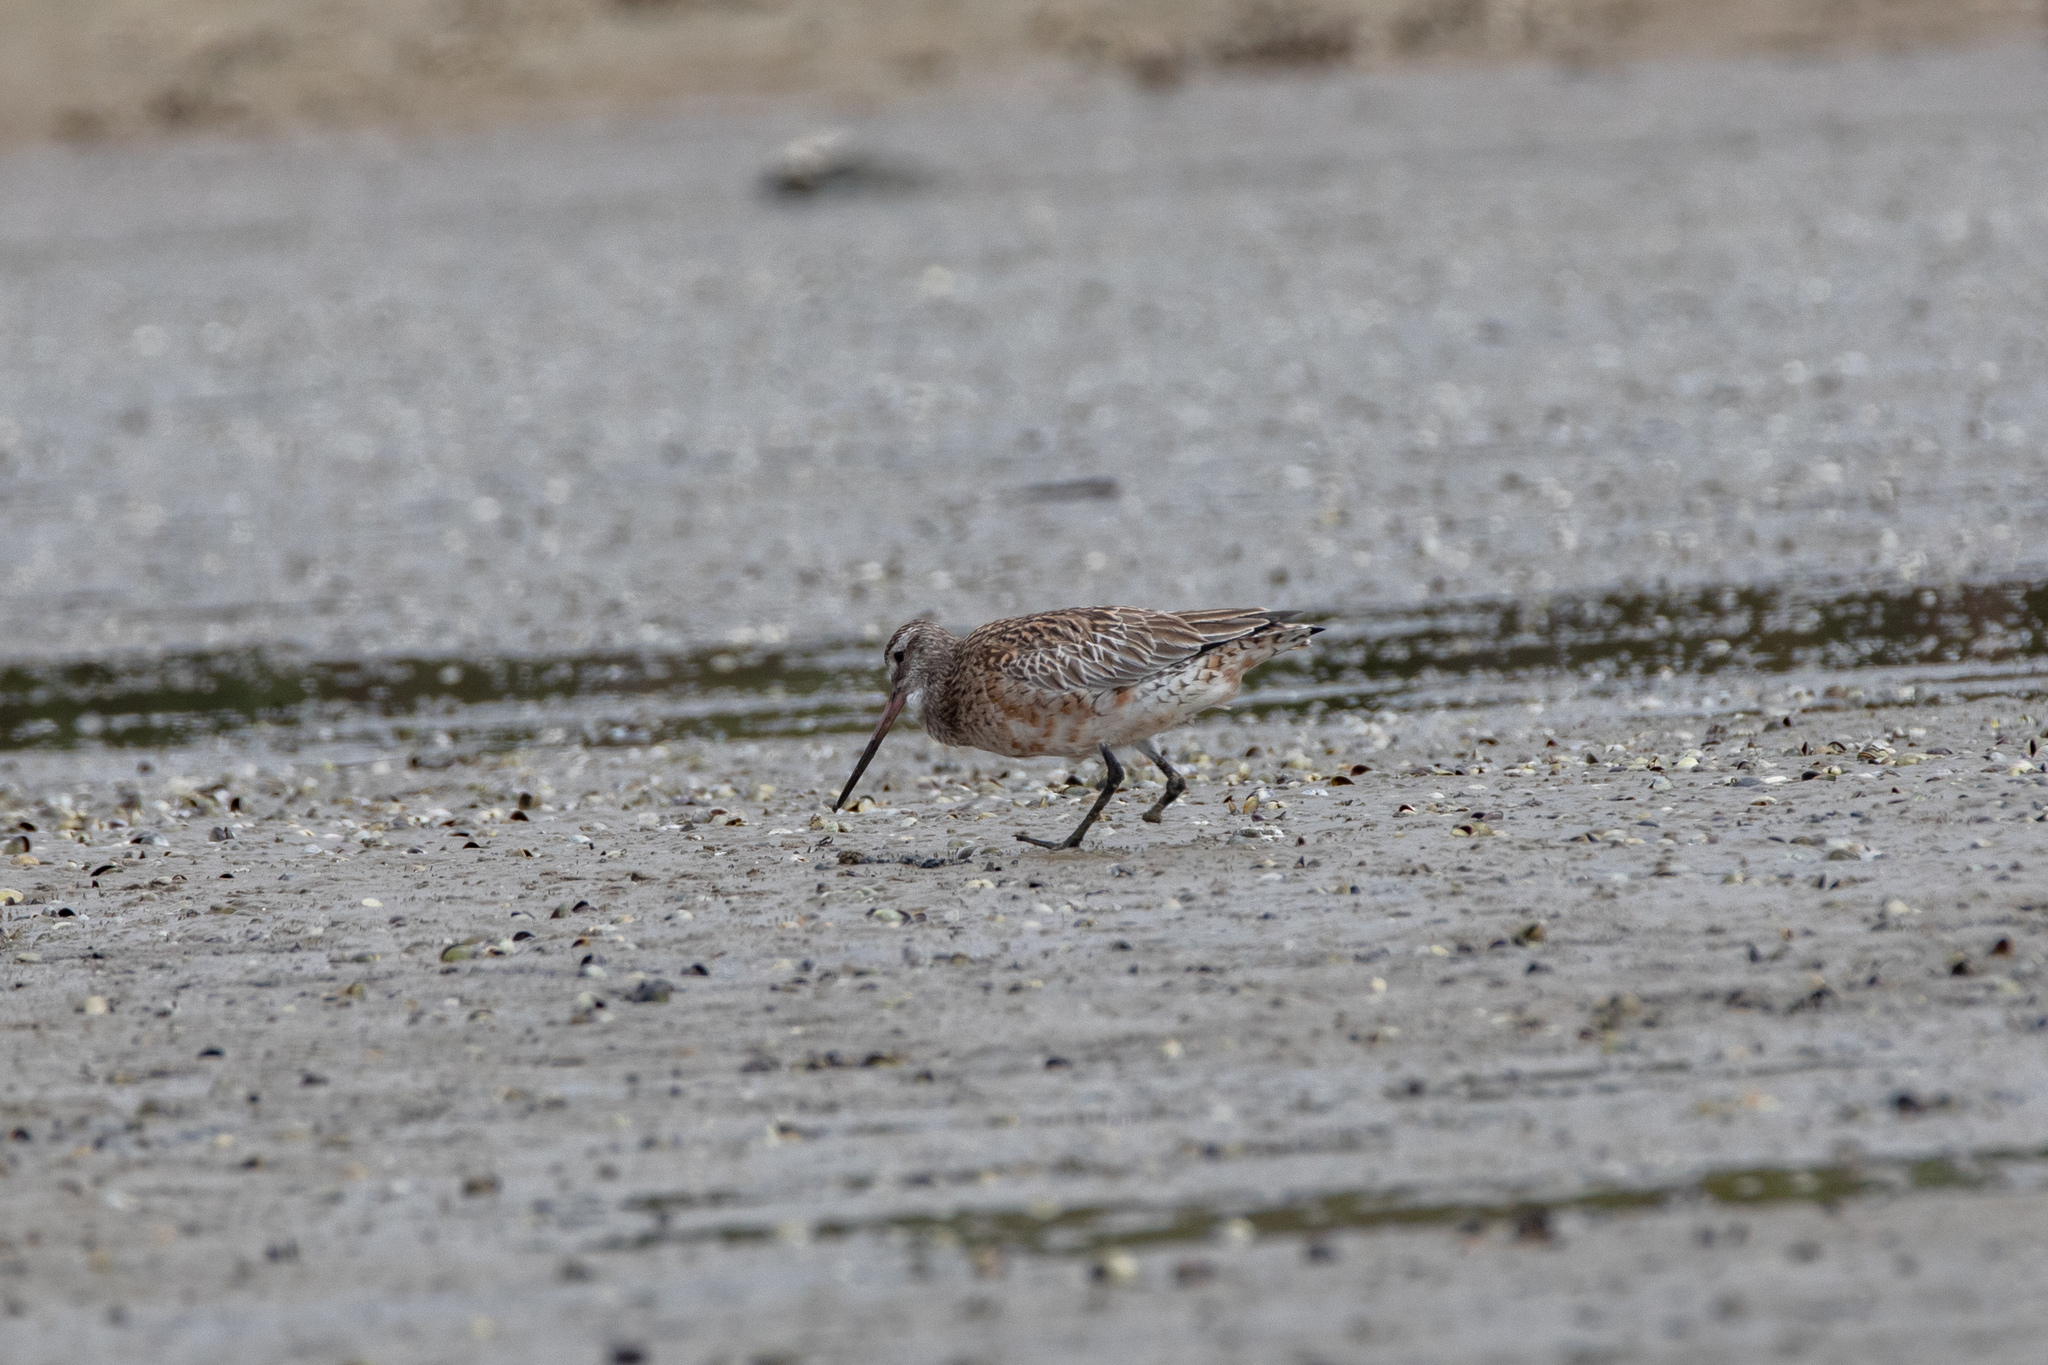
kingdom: Animalia
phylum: Chordata
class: Aves
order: Charadriiformes
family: Scolopacidae
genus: Limosa
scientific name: Limosa lapponica
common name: Bar-tailed godwit
